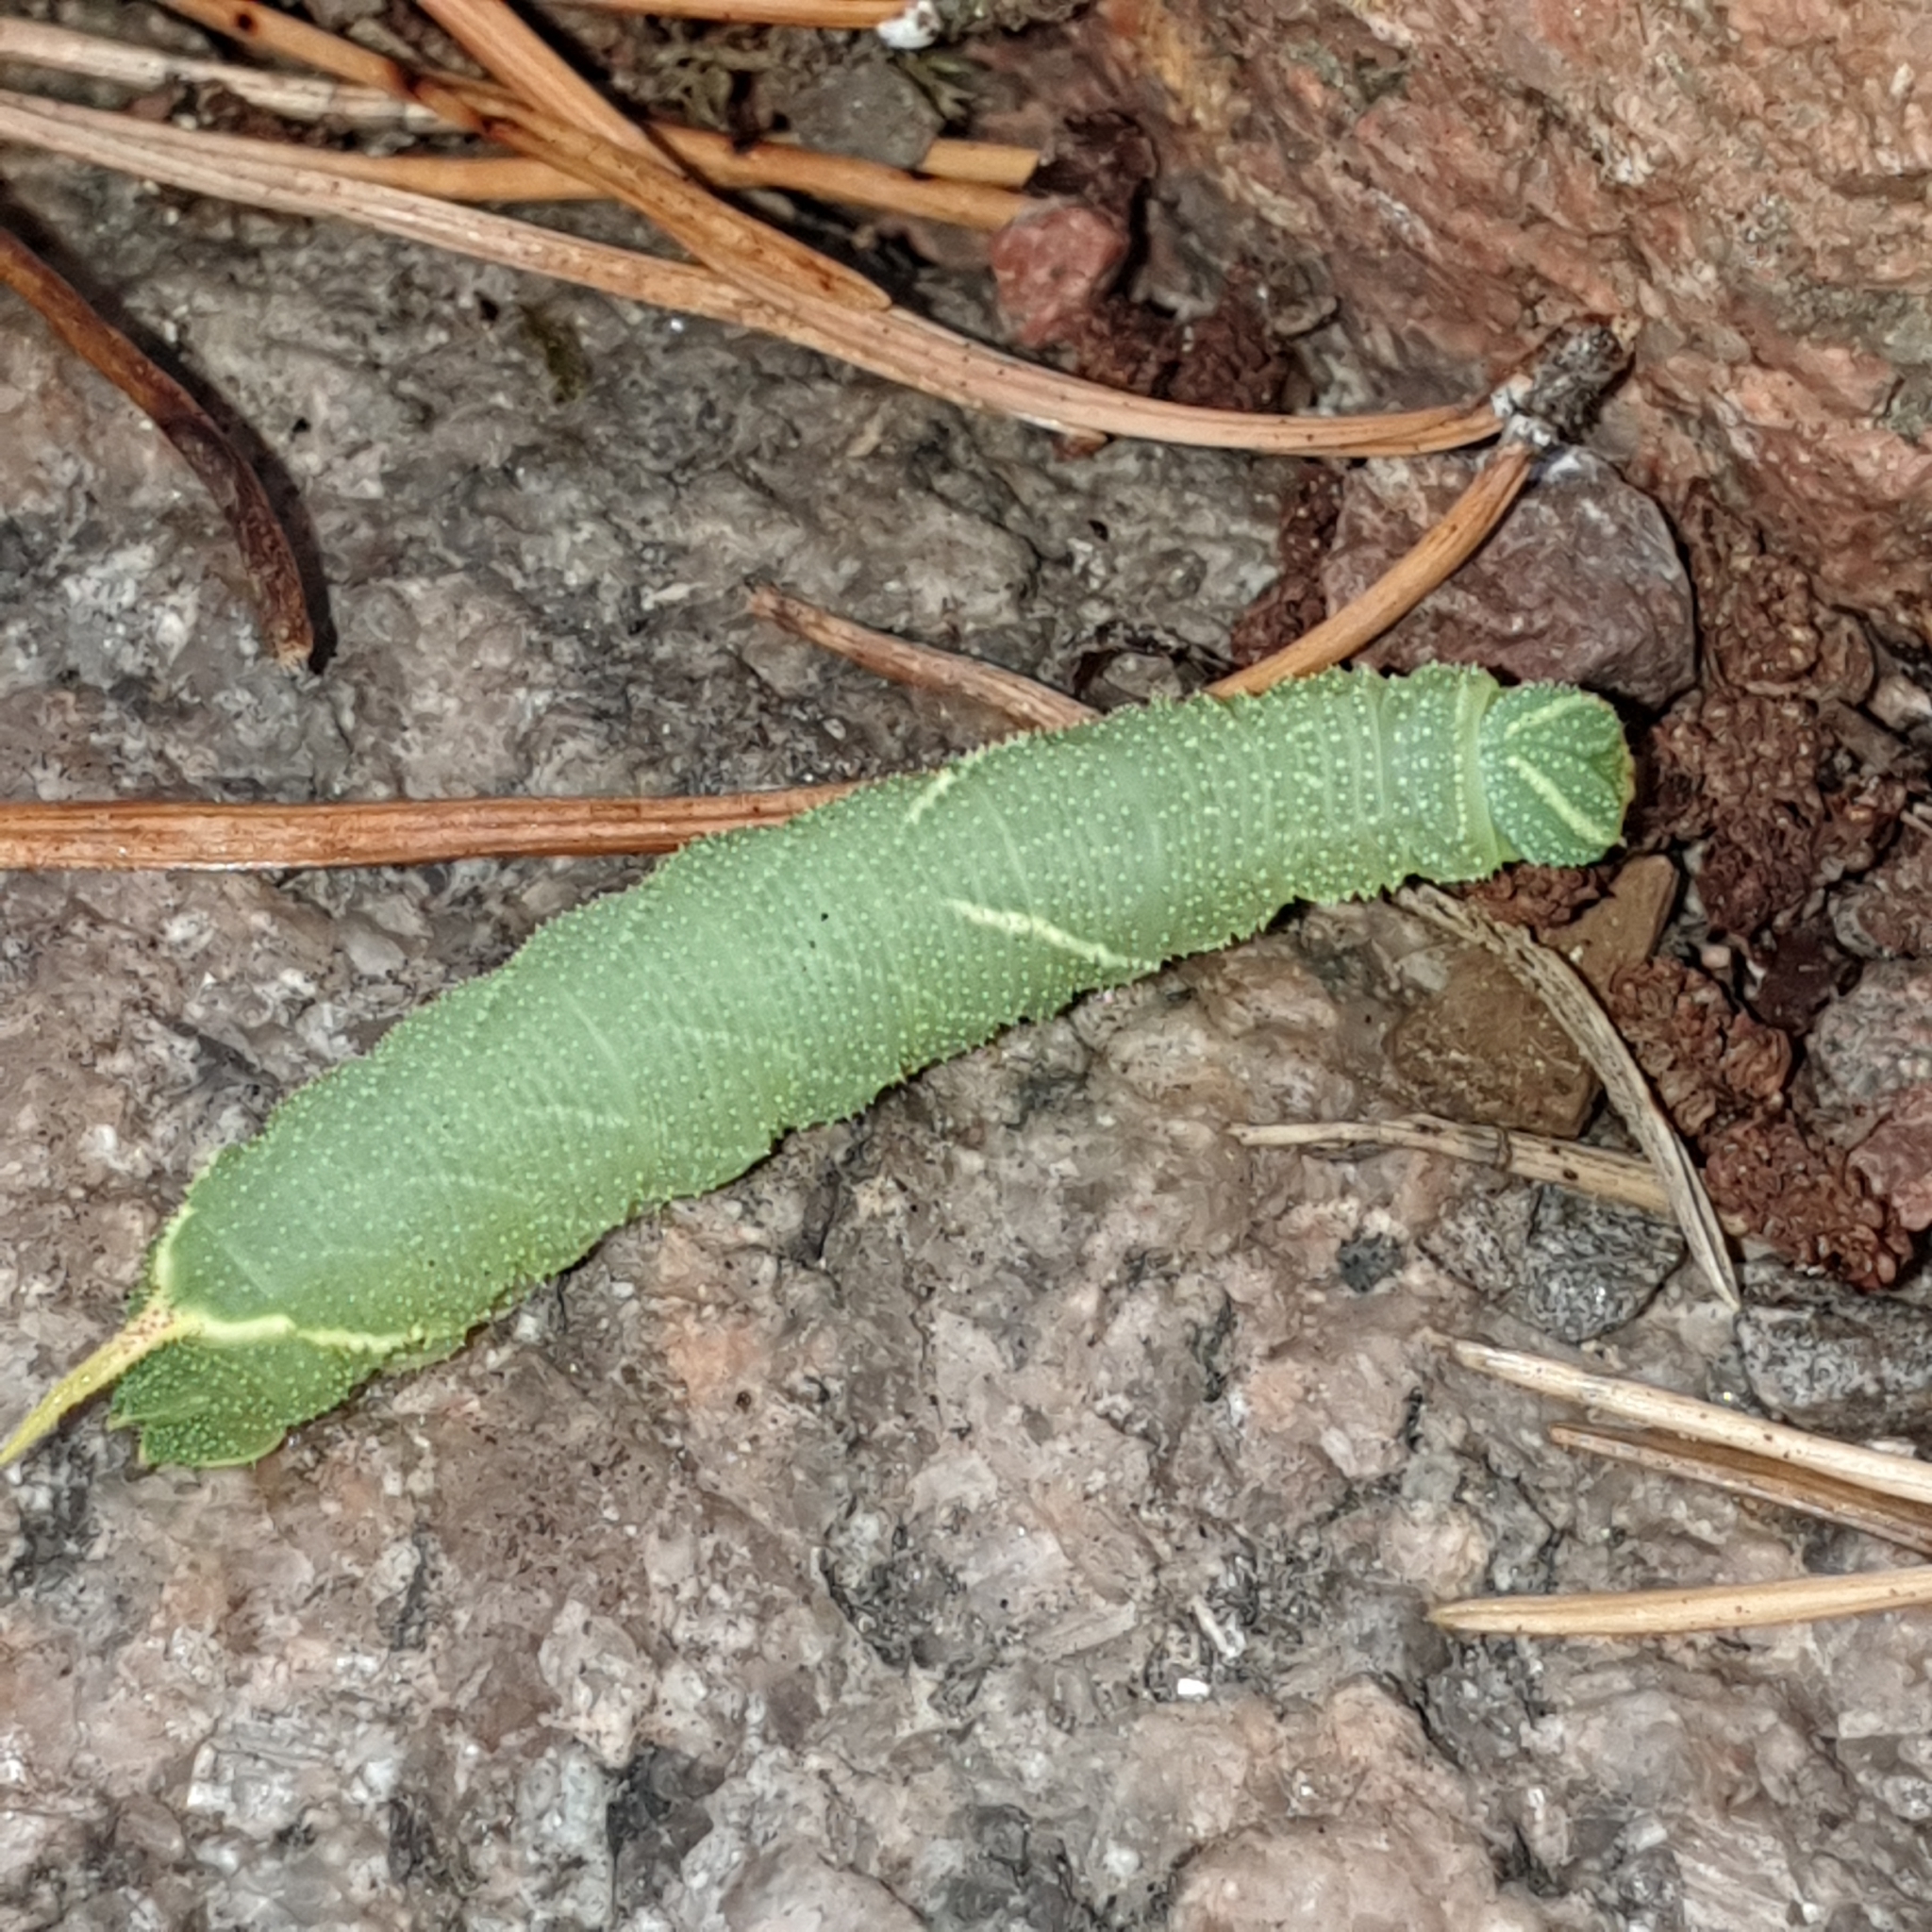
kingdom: Animalia
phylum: Arthropoda
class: Insecta
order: Lepidoptera
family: Sphingidae
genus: Laothoe
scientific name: Laothoe populi
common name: Poplar hawk-moth
